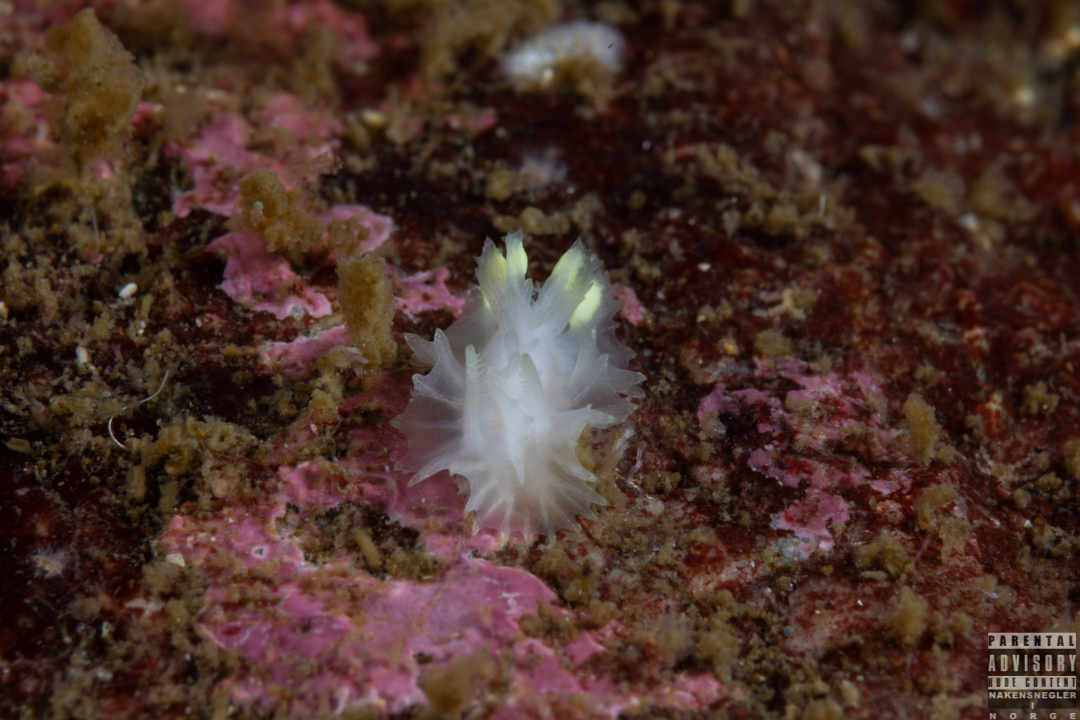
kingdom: Animalia
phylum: Mollusca
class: Gastropoda
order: Nudibranchia
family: Goniodorididae
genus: Lophodoris
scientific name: Lophodoris danielsseni
